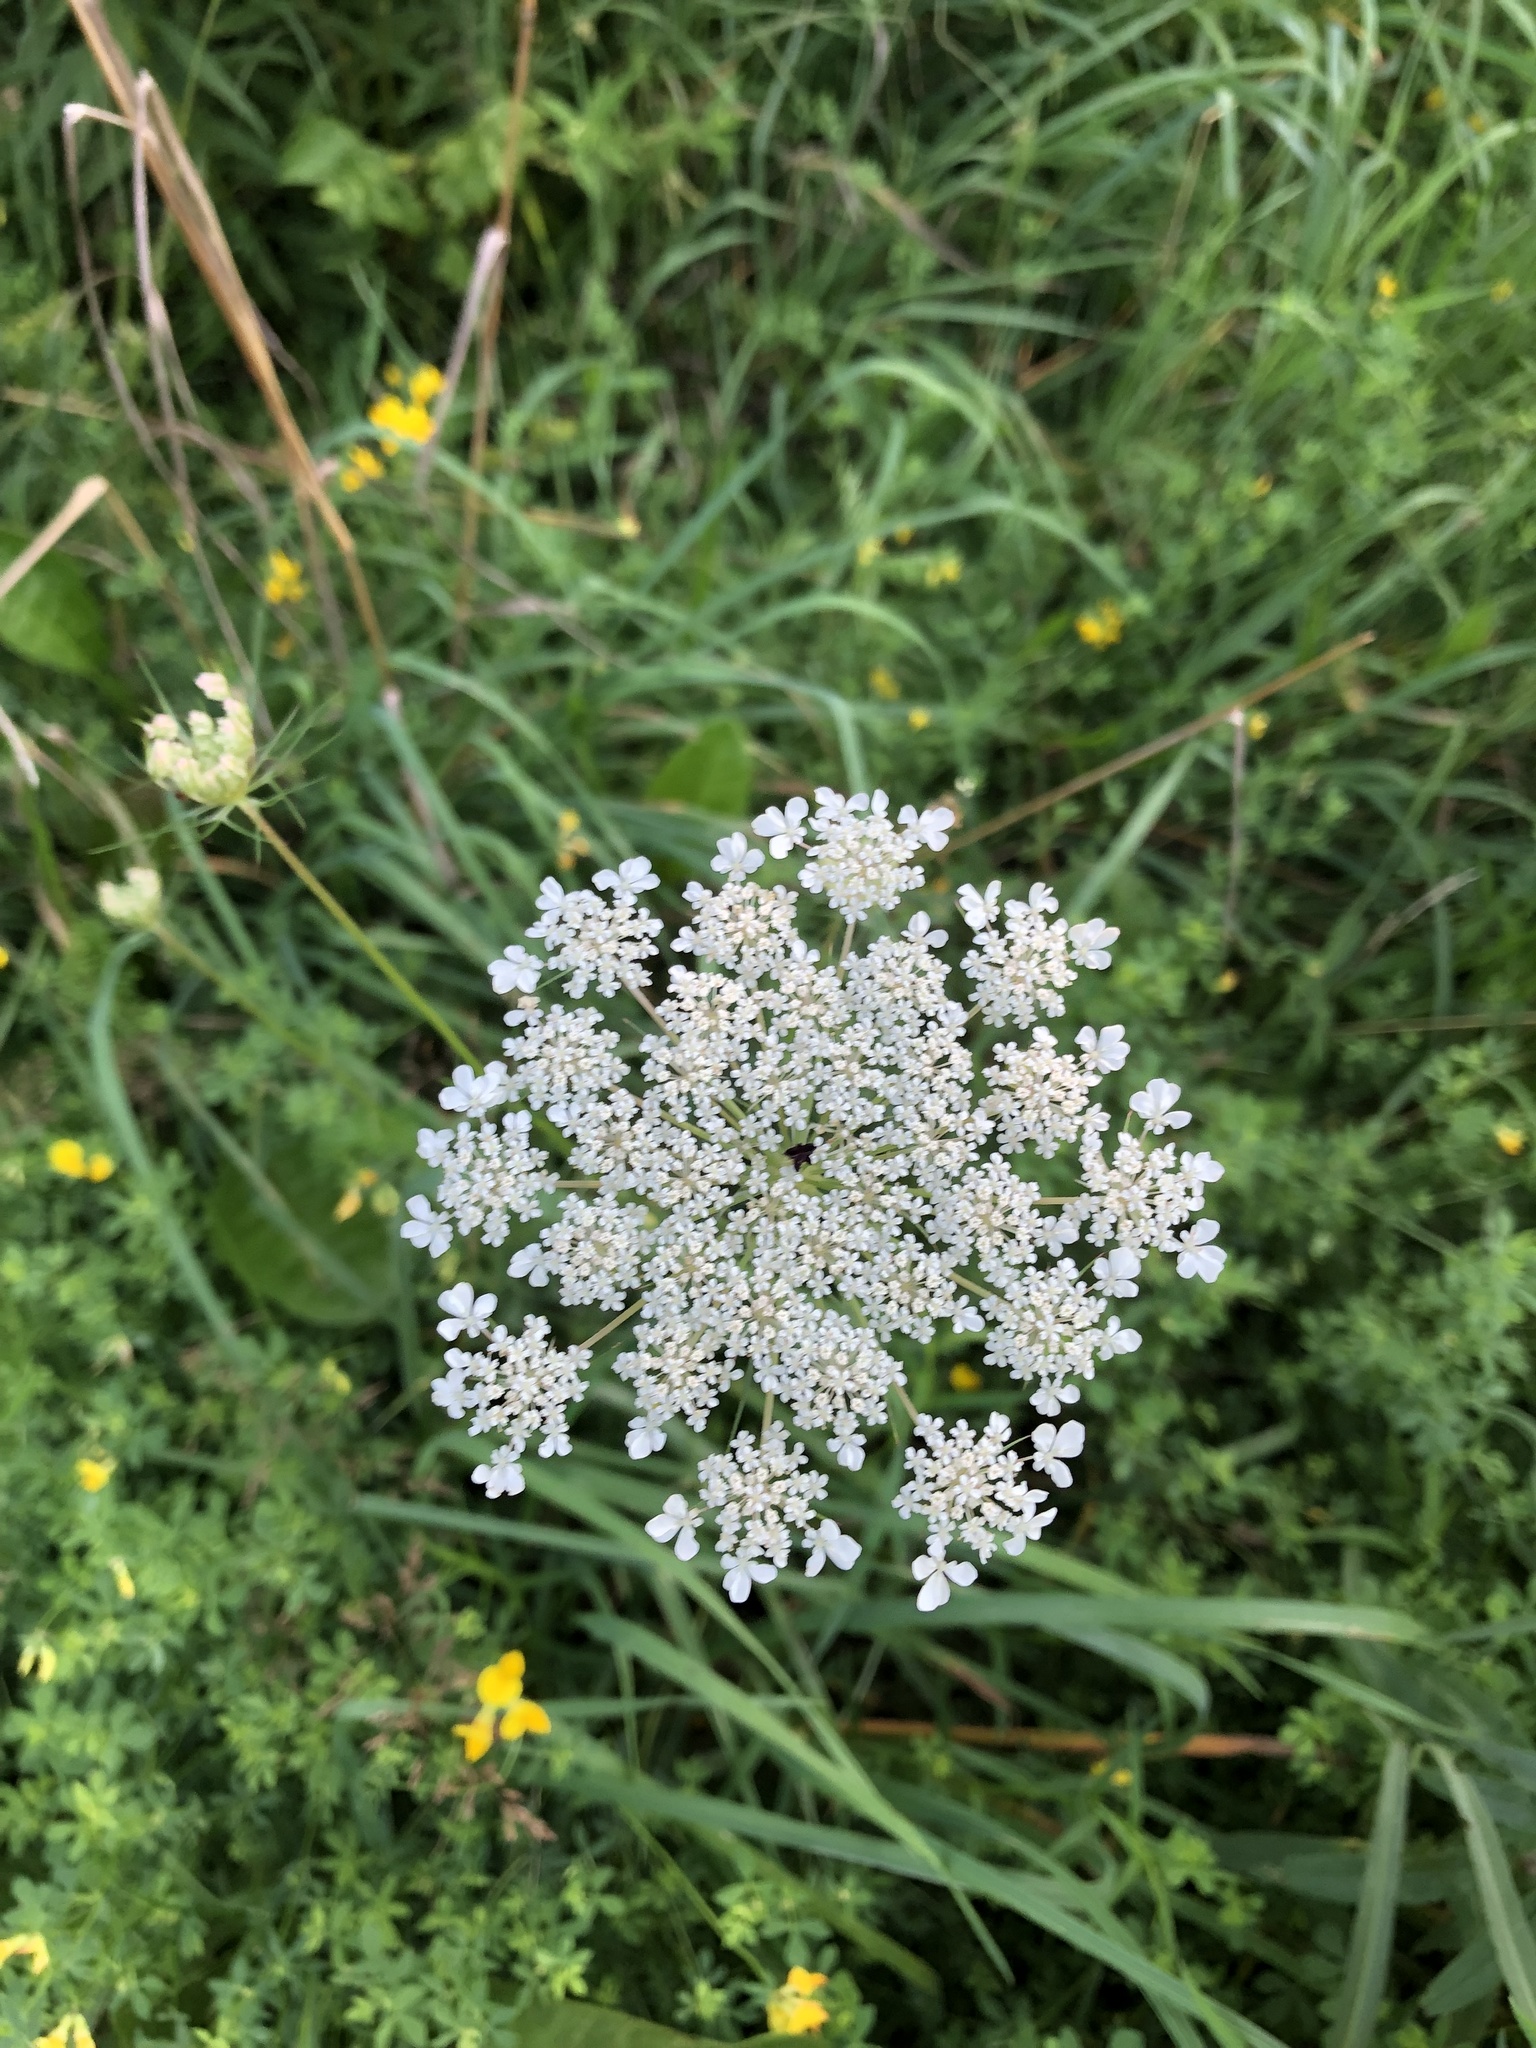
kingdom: Plantae
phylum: Tracheophyta
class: Magnoliopsida
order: Apiales
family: Apiaceae
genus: Daucus
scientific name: Daucus carota
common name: Wild carrot
